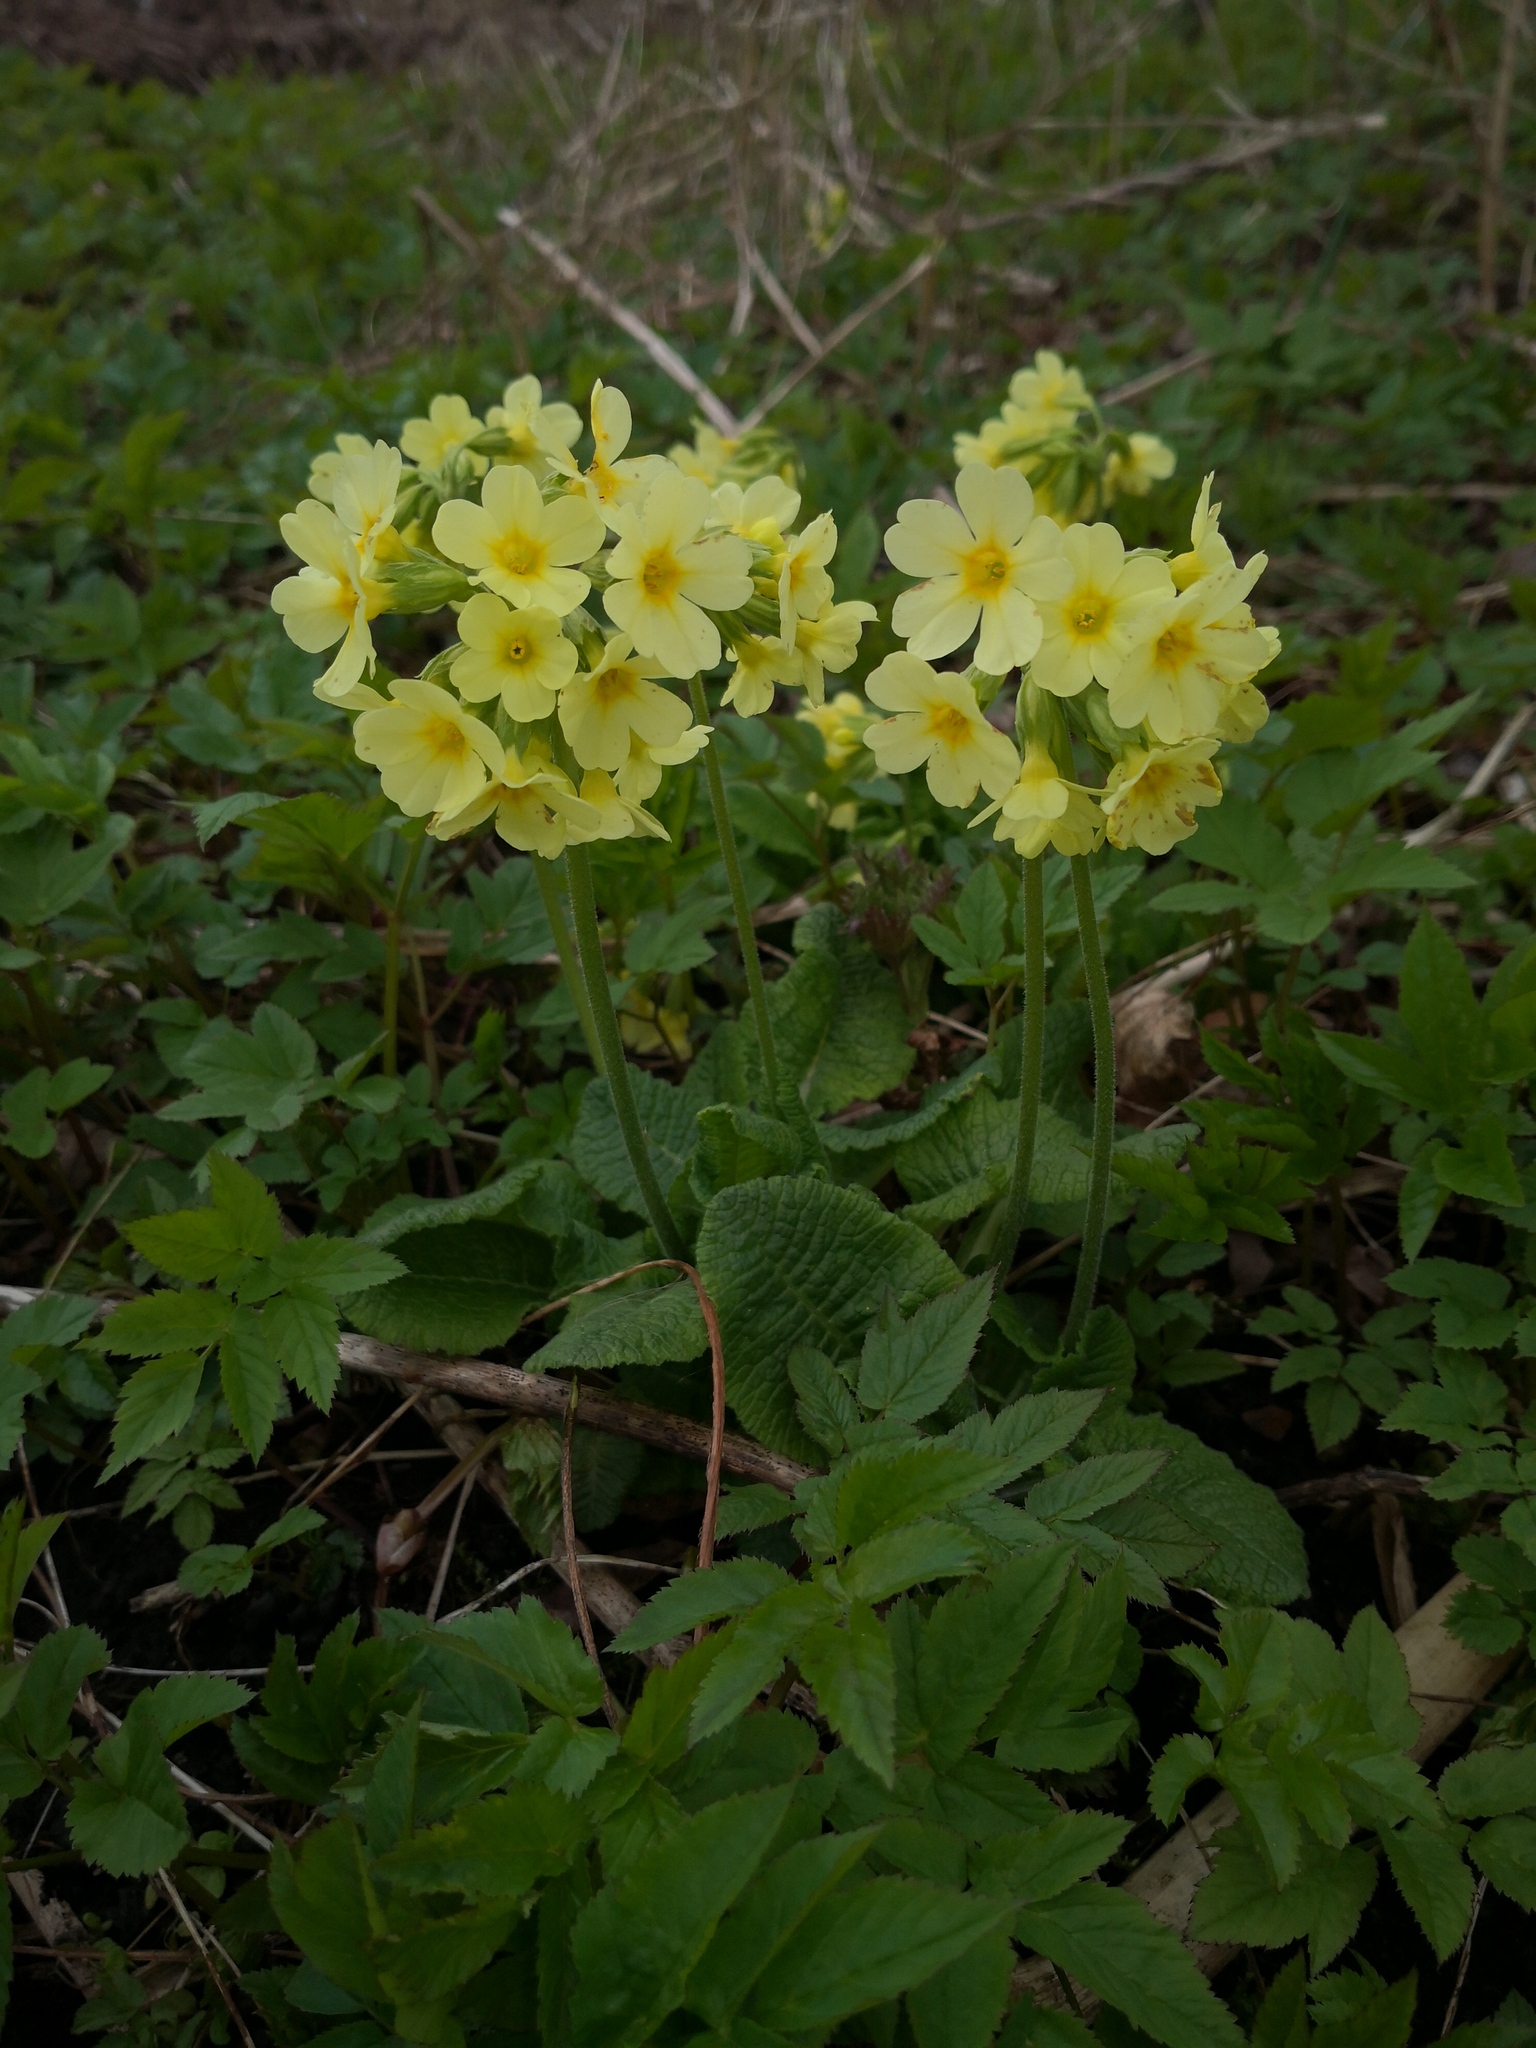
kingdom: Plantae
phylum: Tracheophyta
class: Magnoliopsida
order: Ericales
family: Primulaceae
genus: Primula
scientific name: Primula elatior
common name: Oxlip
